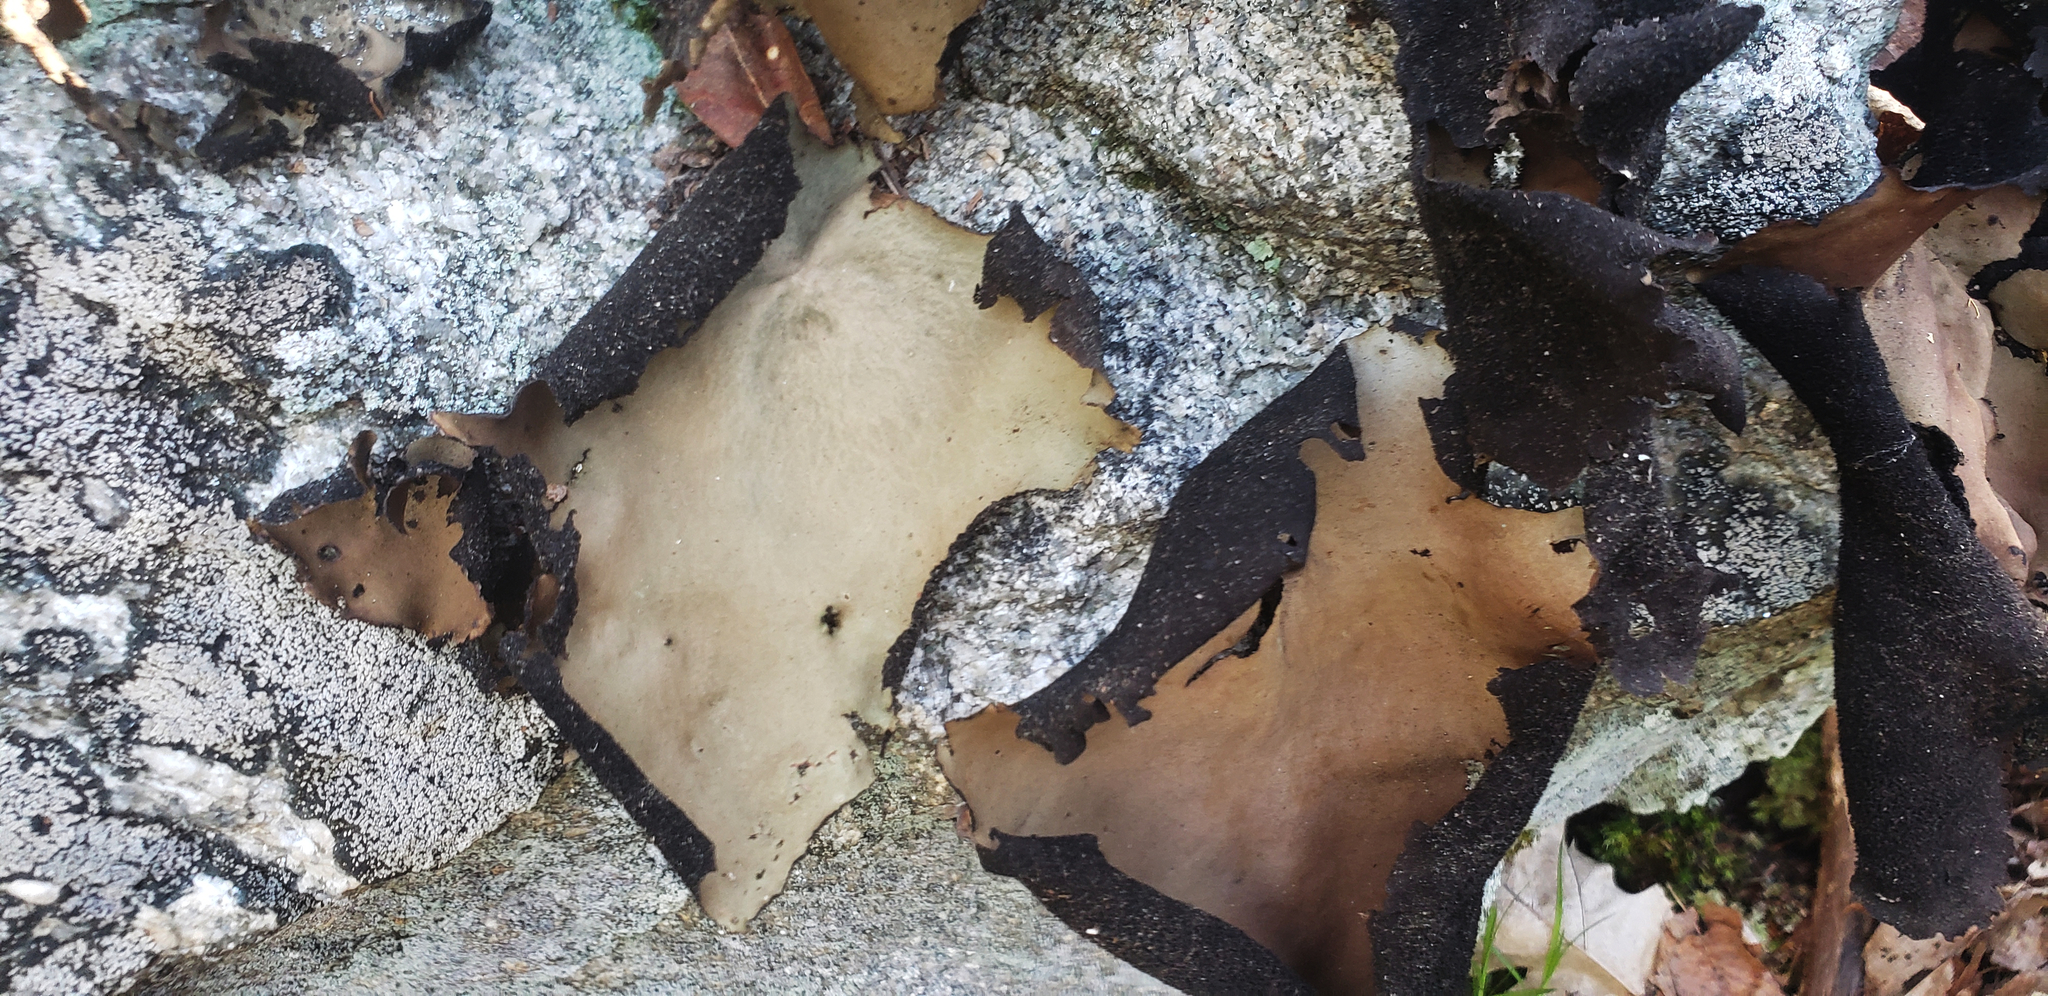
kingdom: Fungi
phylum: Ascomycota
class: Lecanoromycetes
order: Umbilicariales
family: Umbilicariaceae
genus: Umbilicaria
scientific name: Umbilicaria mammulata
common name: Smooth rock tripe
